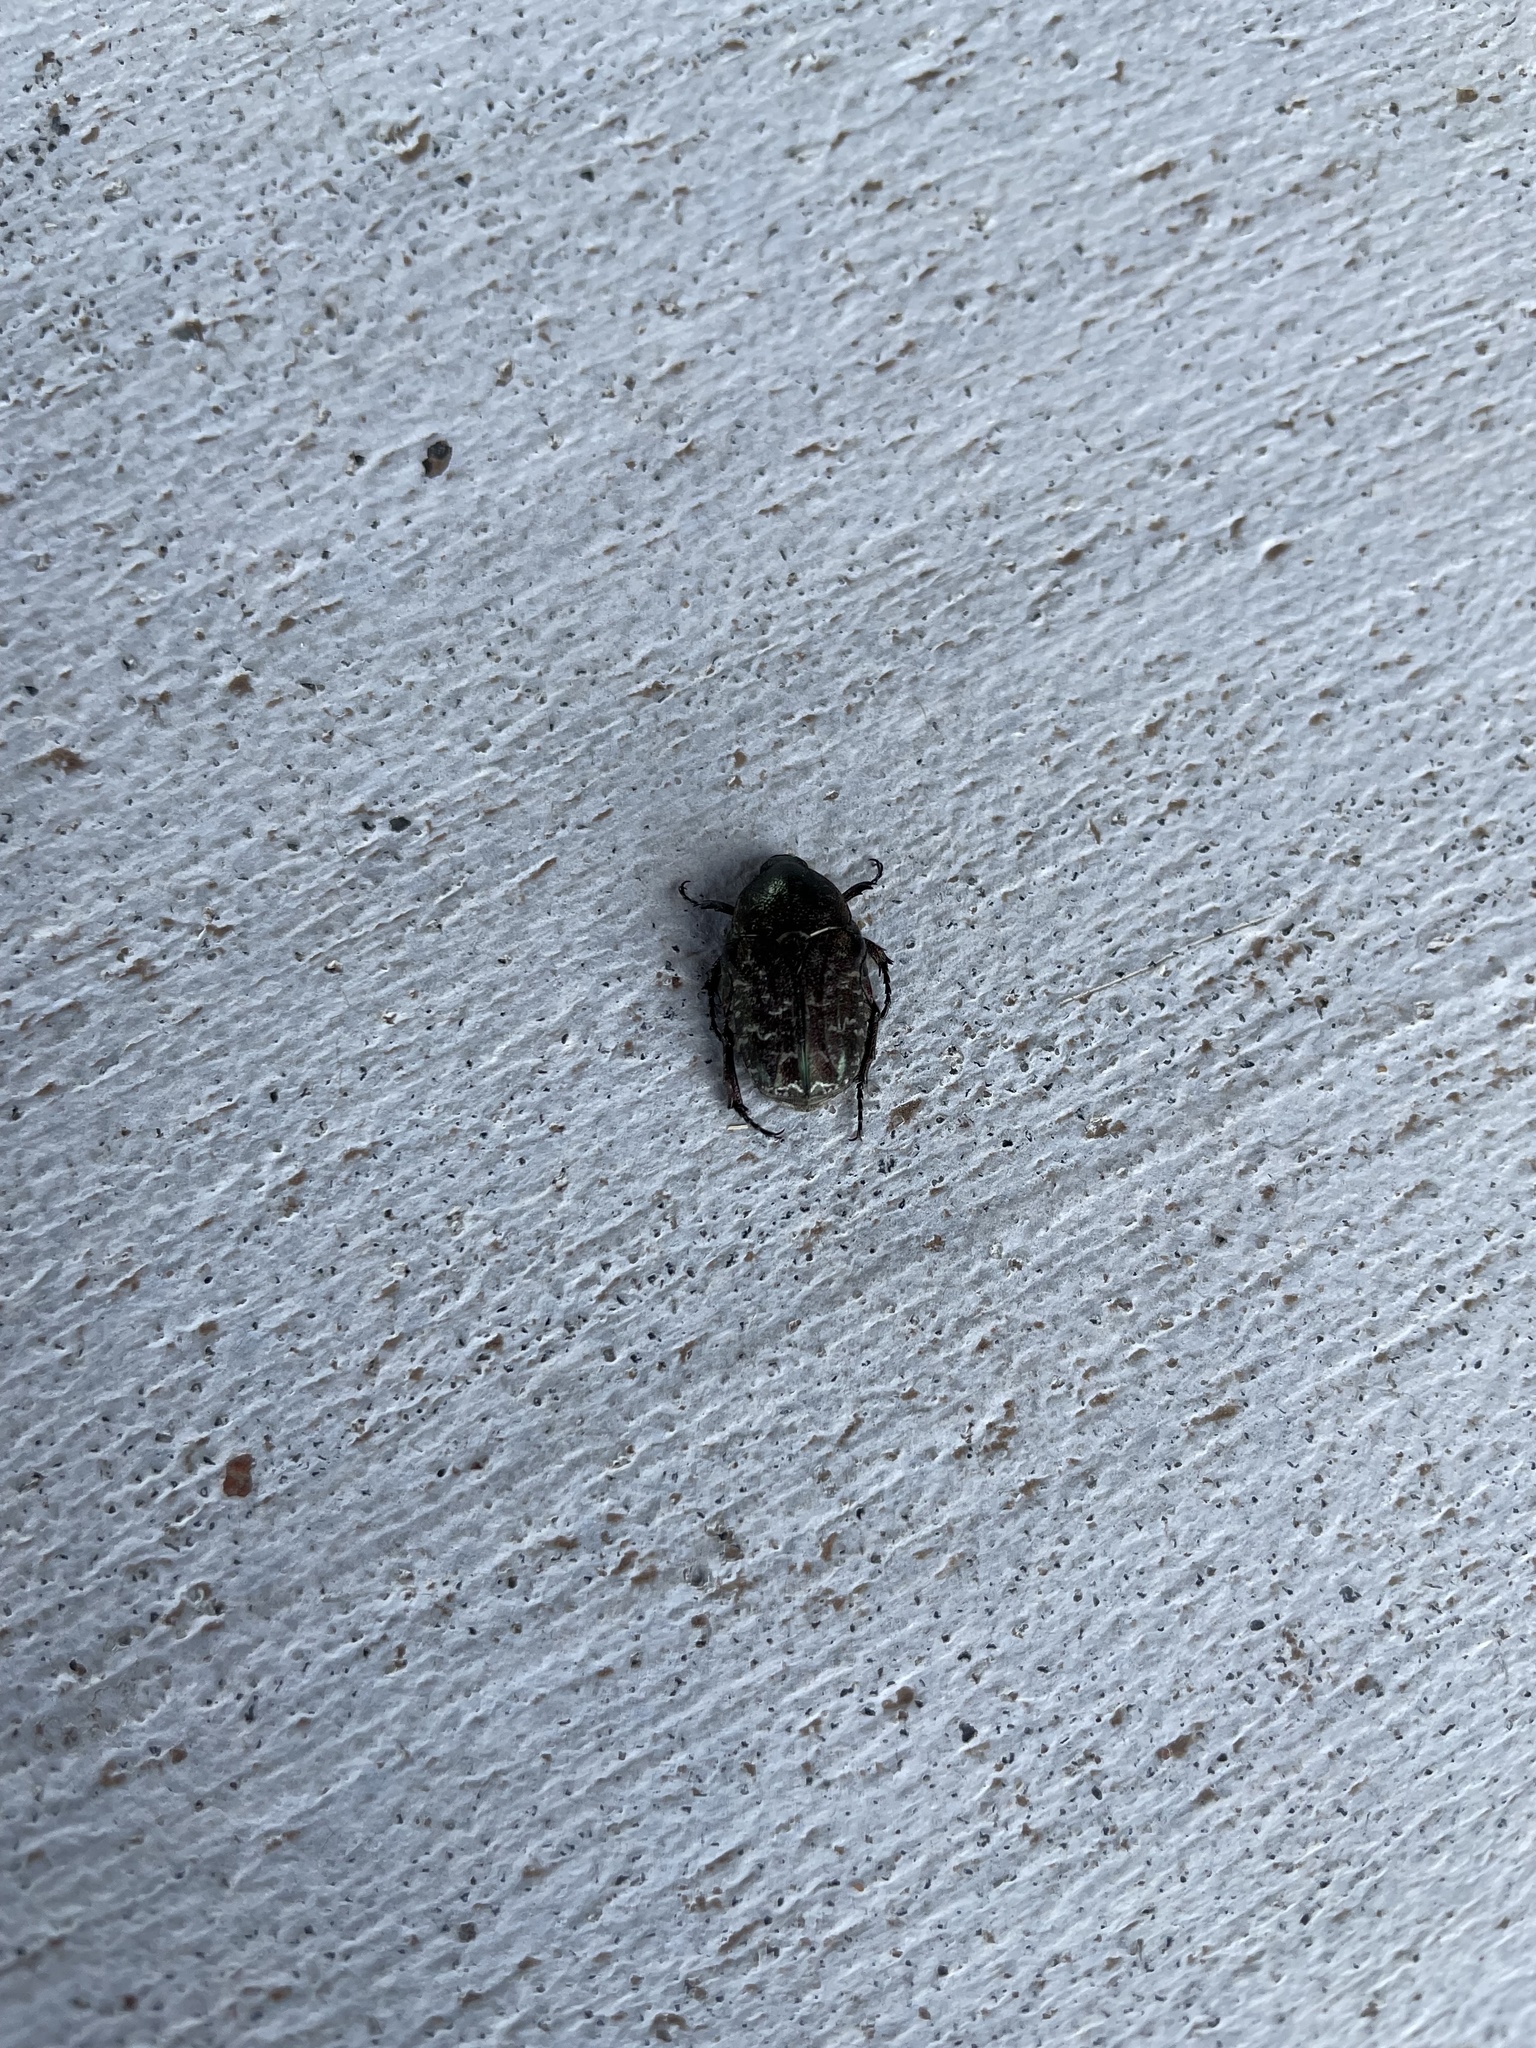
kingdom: Animalia
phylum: Arthropoda
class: Insecta
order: Coleoptera
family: Scarabaeidae
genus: Euphoria
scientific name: Euphoria sepulcralis
